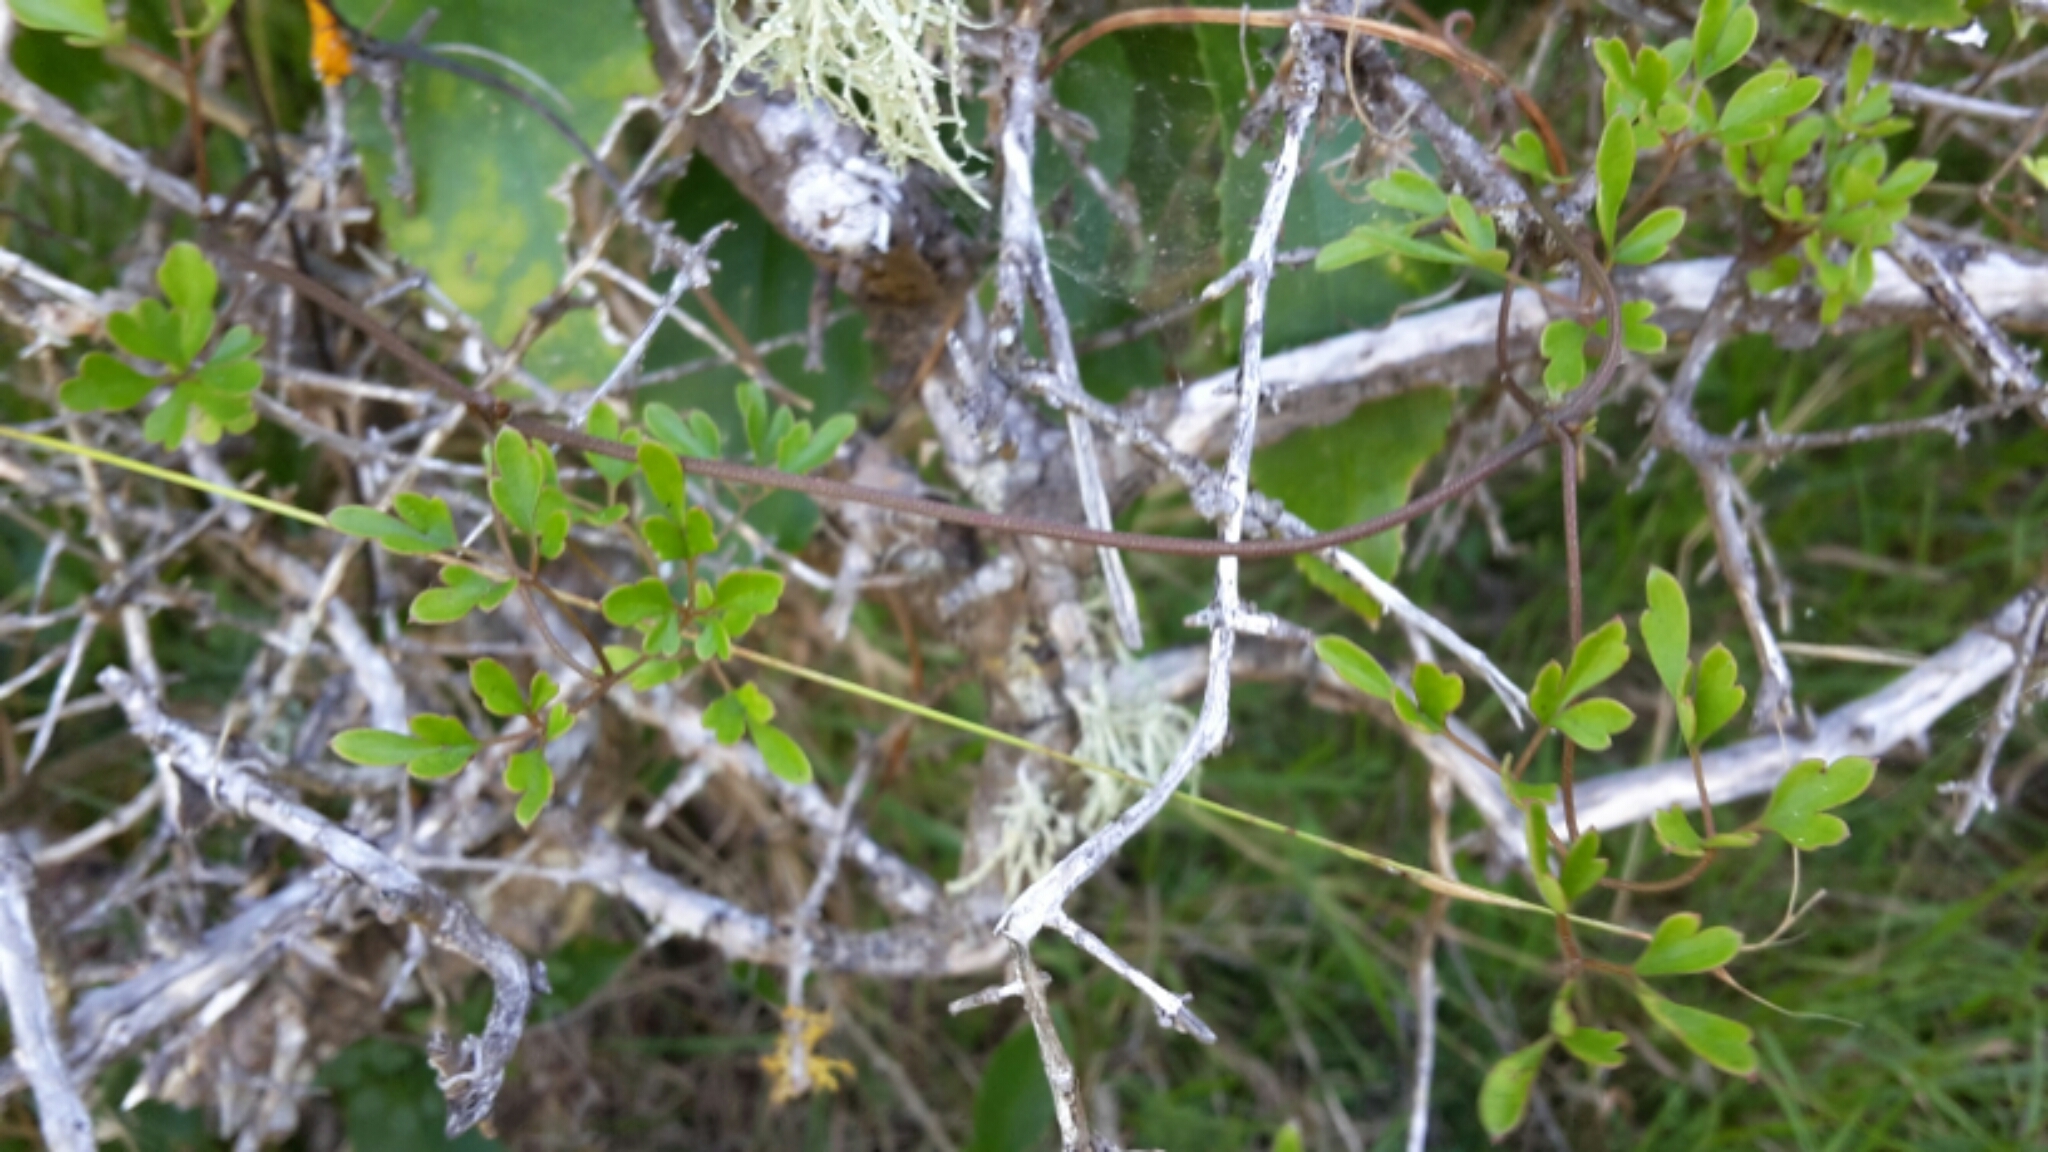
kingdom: Plantae
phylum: Tracheophyta
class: Magnoliopsida
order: Ranunculales
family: Ranunculaceae
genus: Clematis
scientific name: Clematis forsteri
